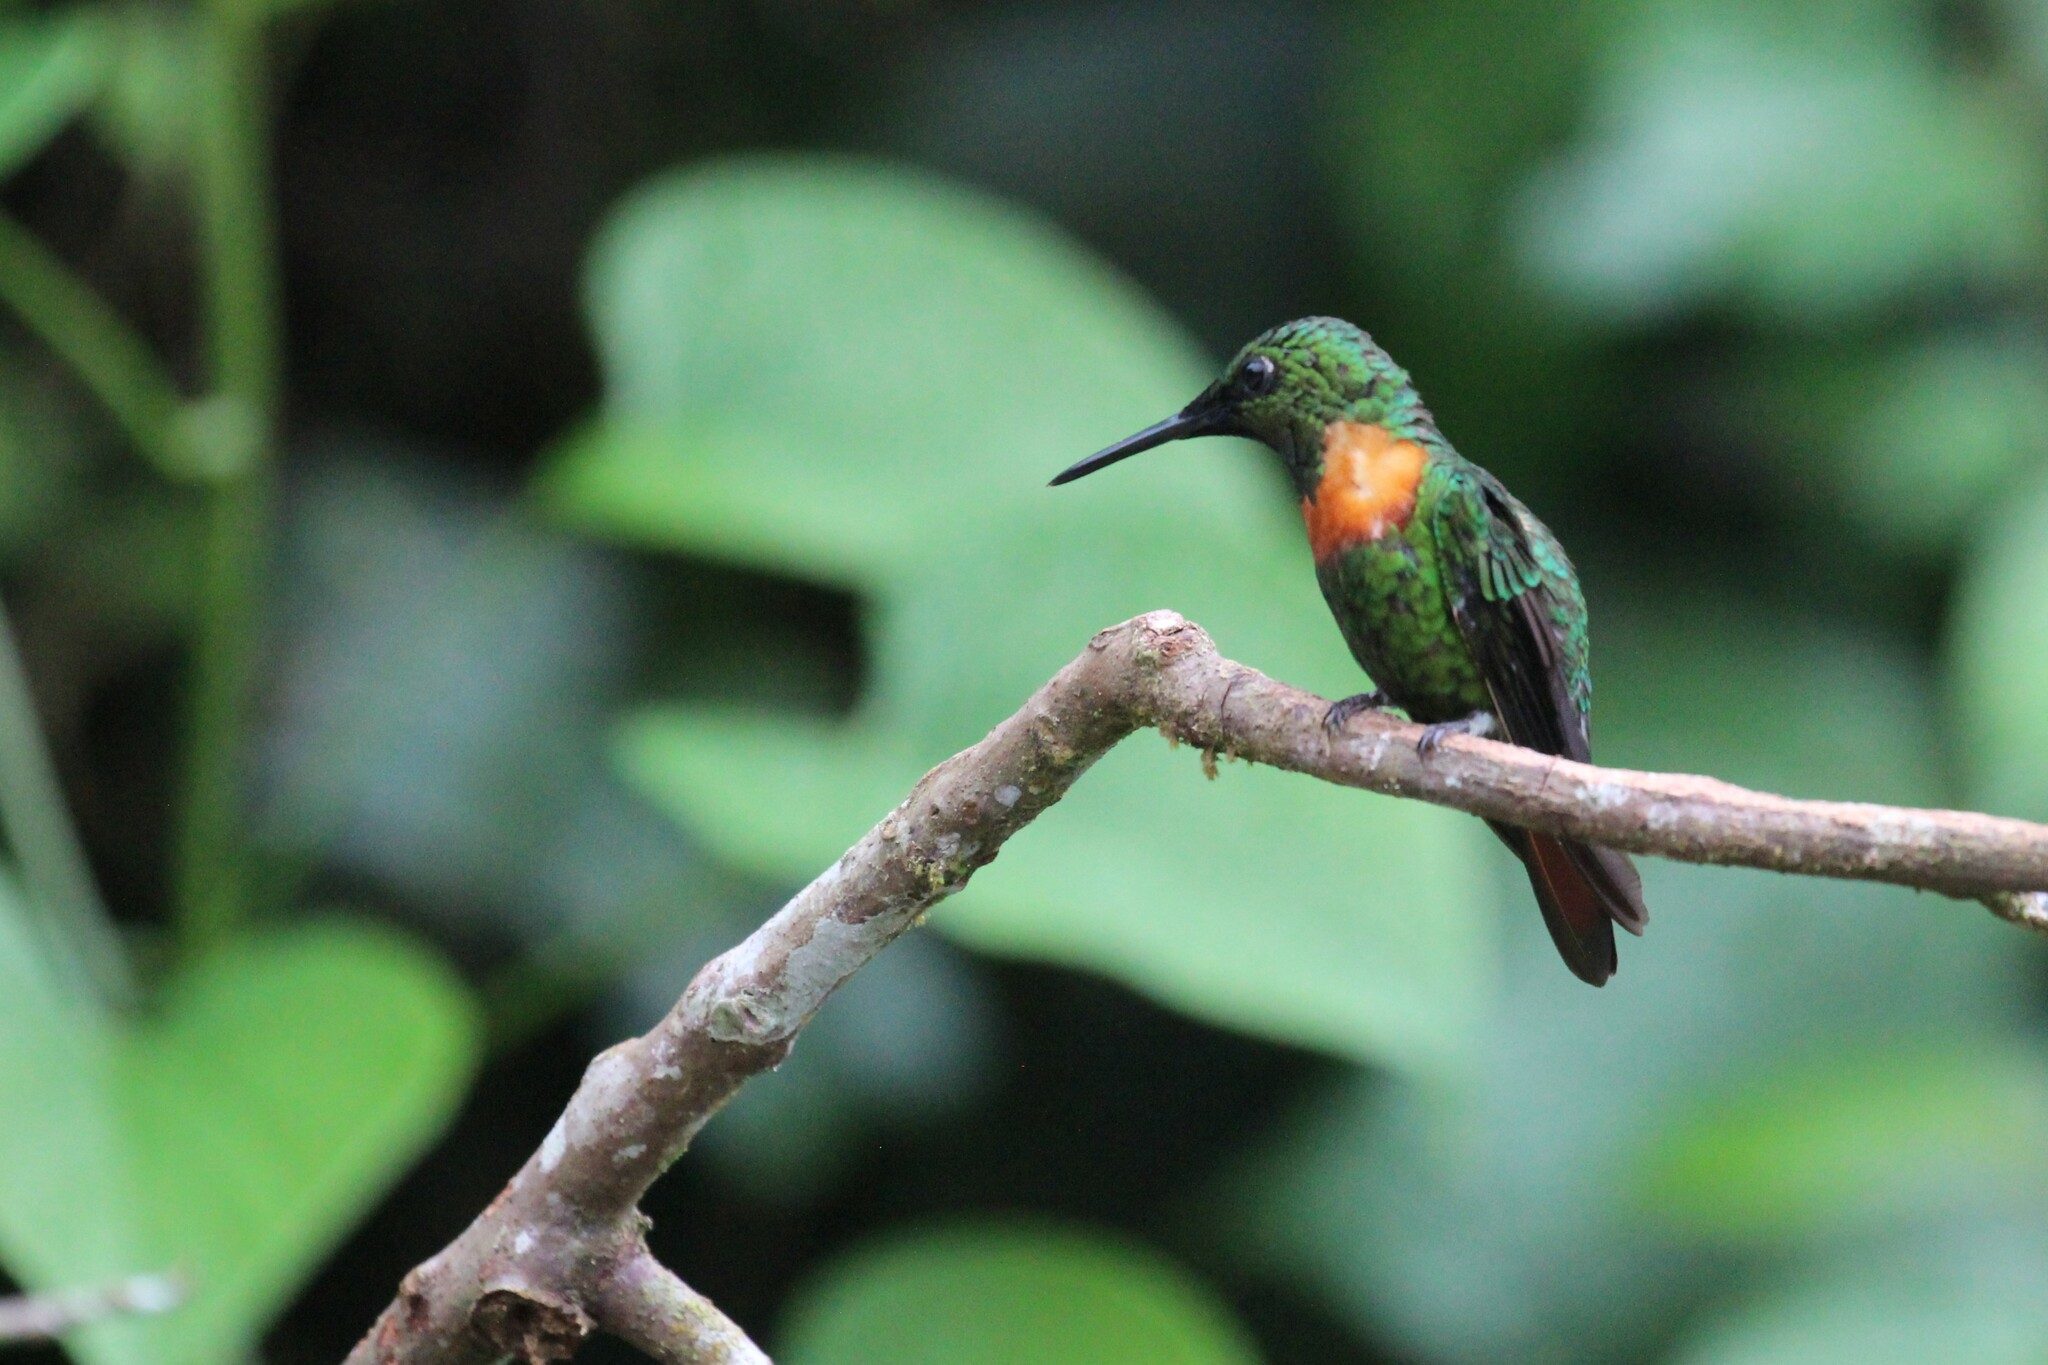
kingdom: Animalia
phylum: Chordata
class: Aves
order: Apodiformes
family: Trochilidae
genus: Heliodoxa
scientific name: Heliodoxa aurescens
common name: Gould's jewelfront
